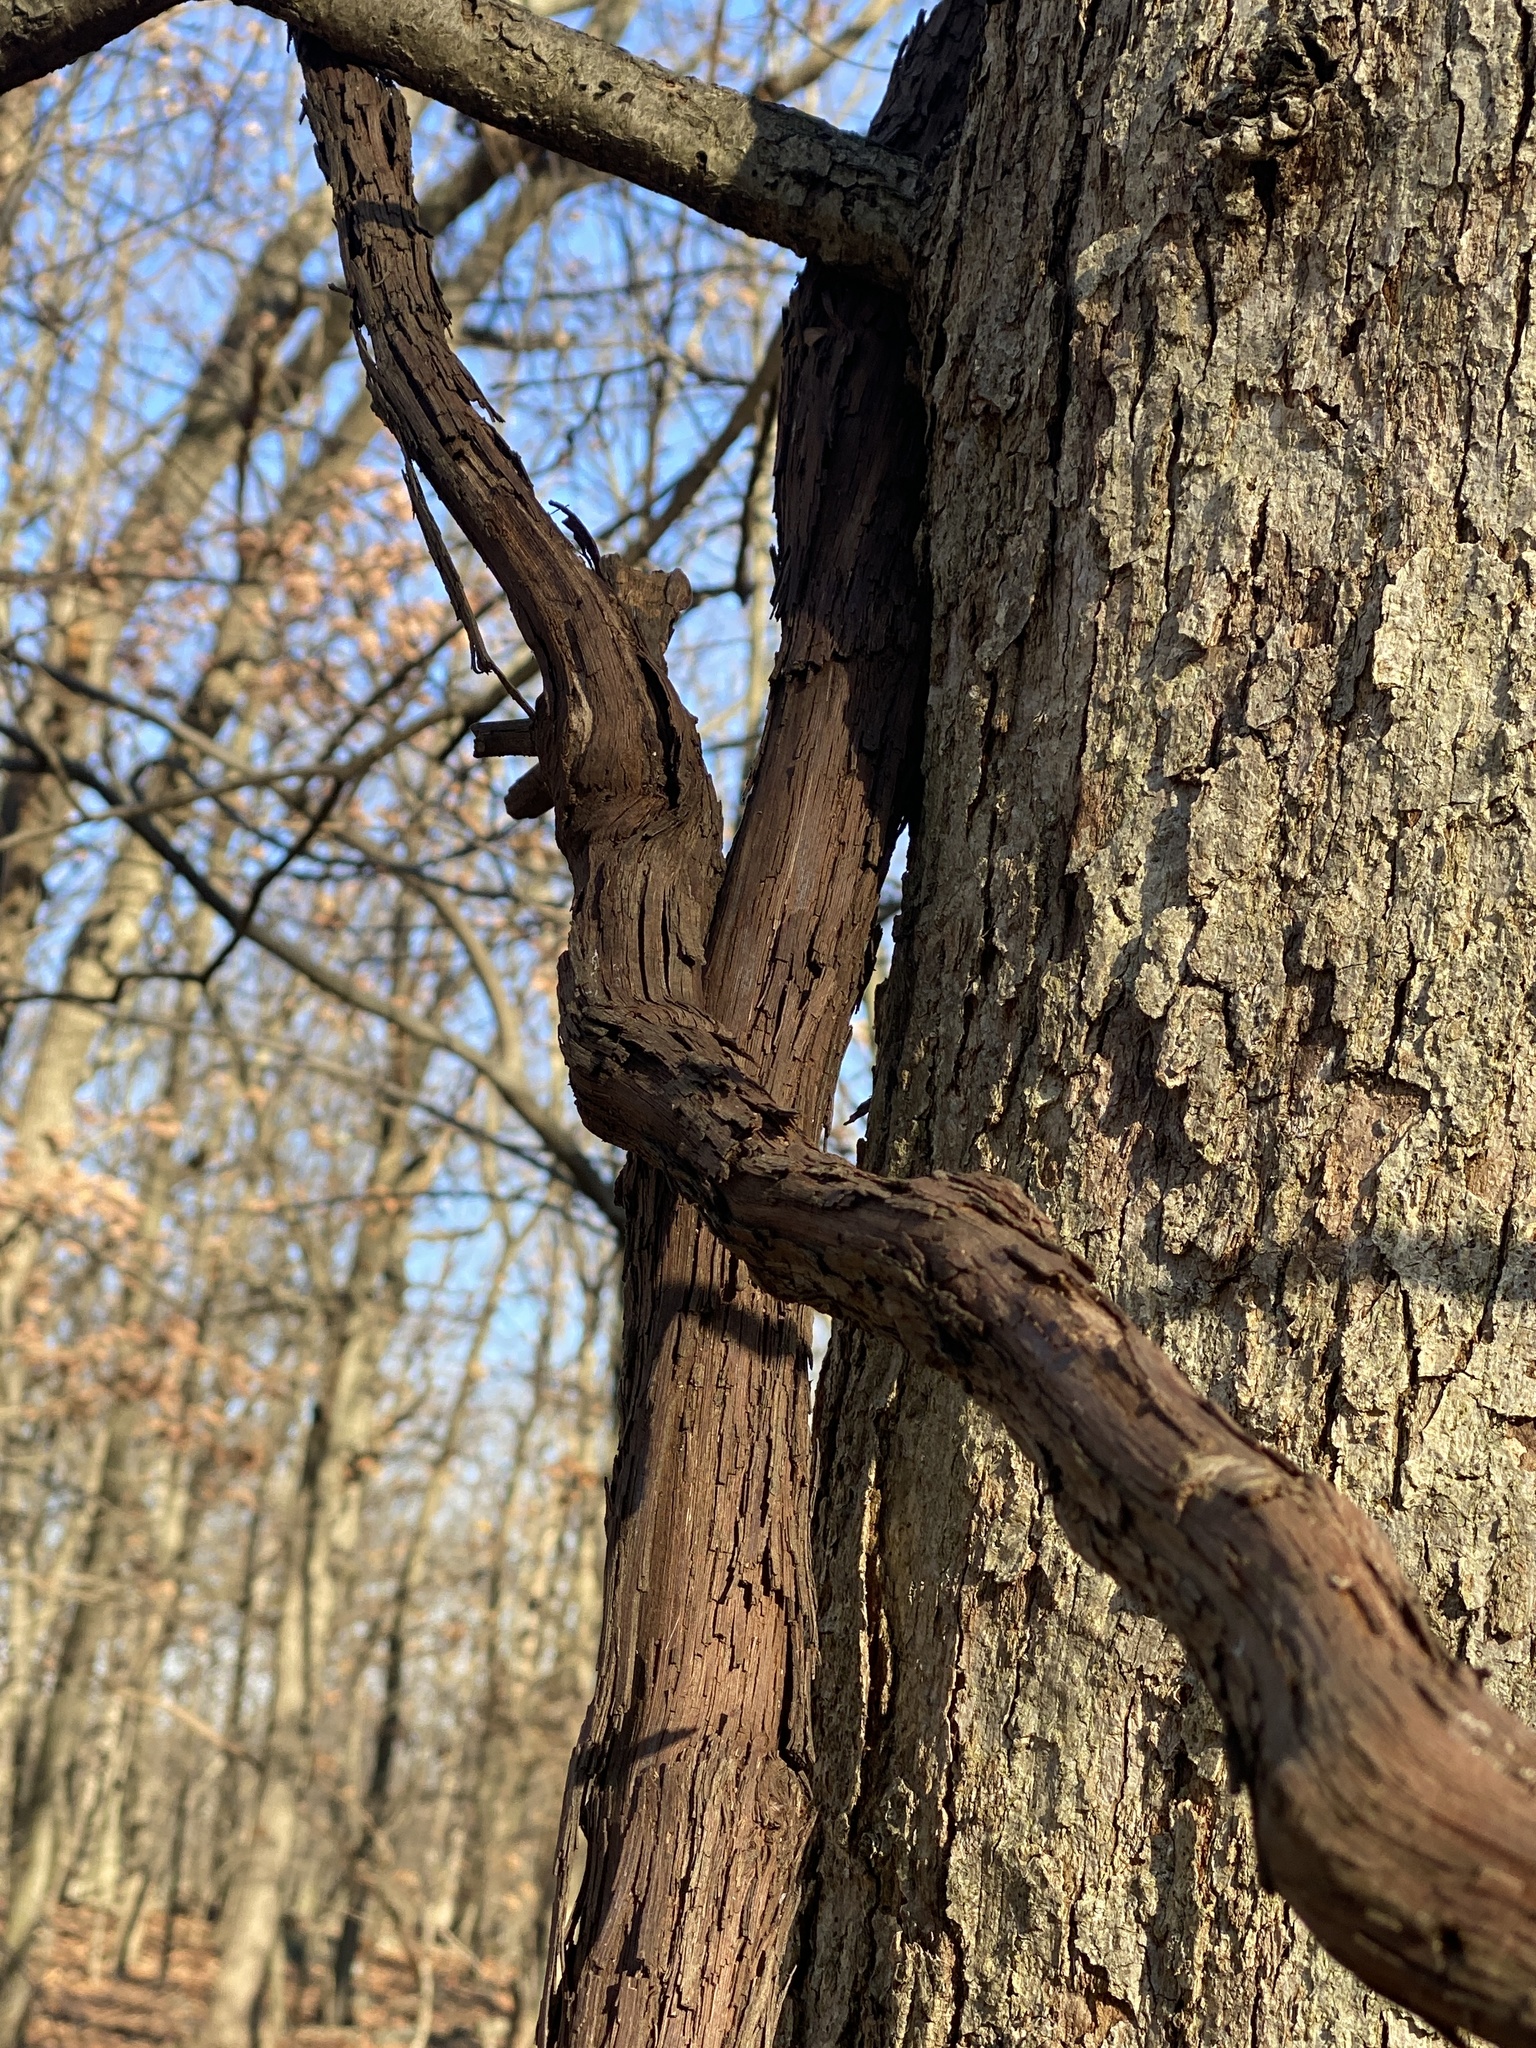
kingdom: Plantae
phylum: Tracheophyta
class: Magnoliopsida
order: Vitales
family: Vitaceae
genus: Vitis
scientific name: Vitis
